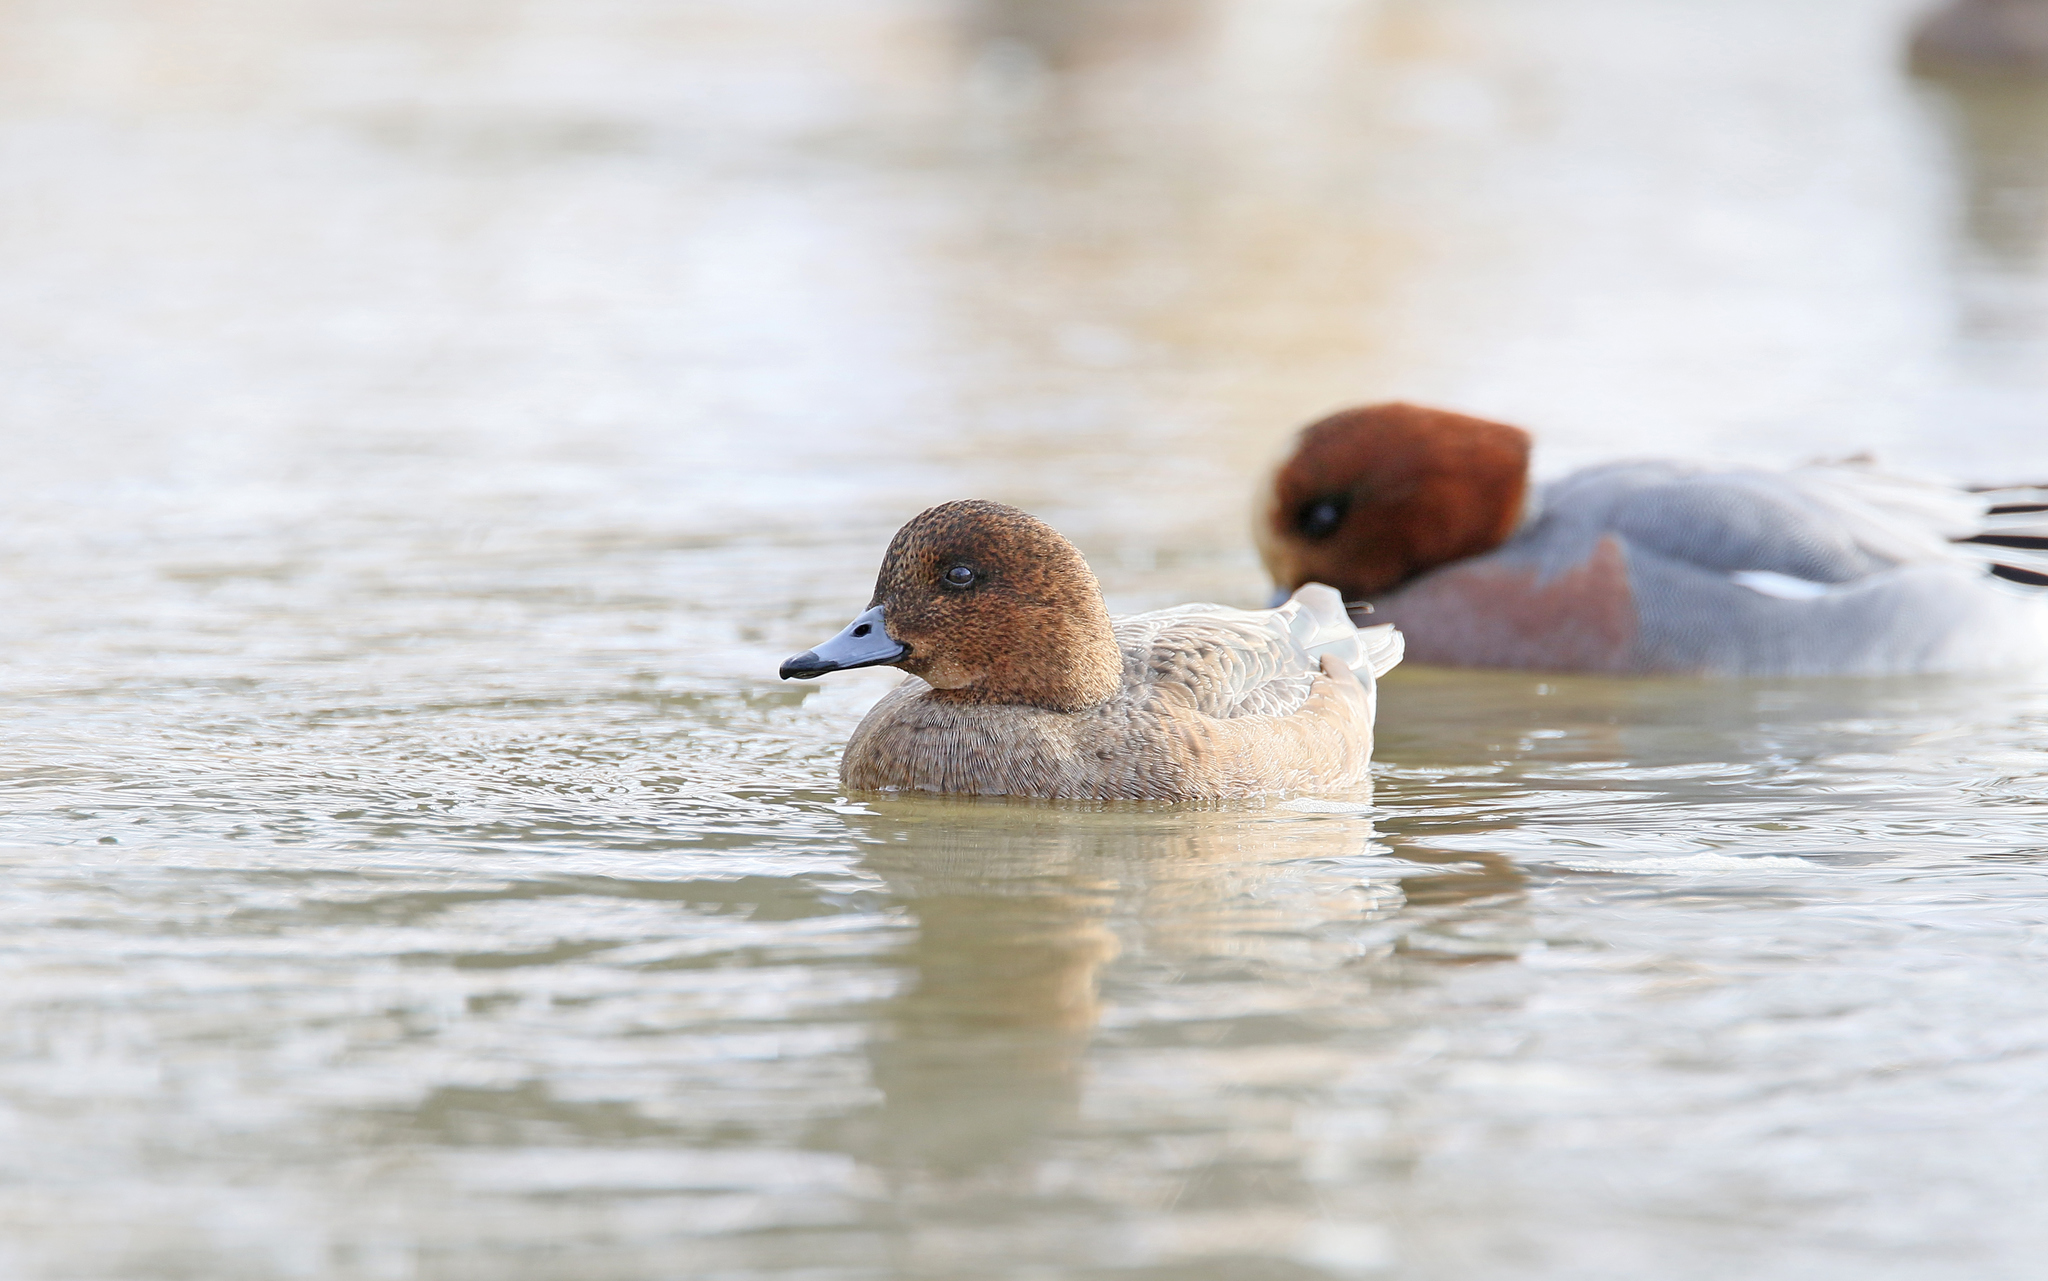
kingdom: Animalia
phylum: Chordata
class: Aves
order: Anseriformes
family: Anatidae
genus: Mareca
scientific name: Mareca penelope
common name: Eurasian wigeon
